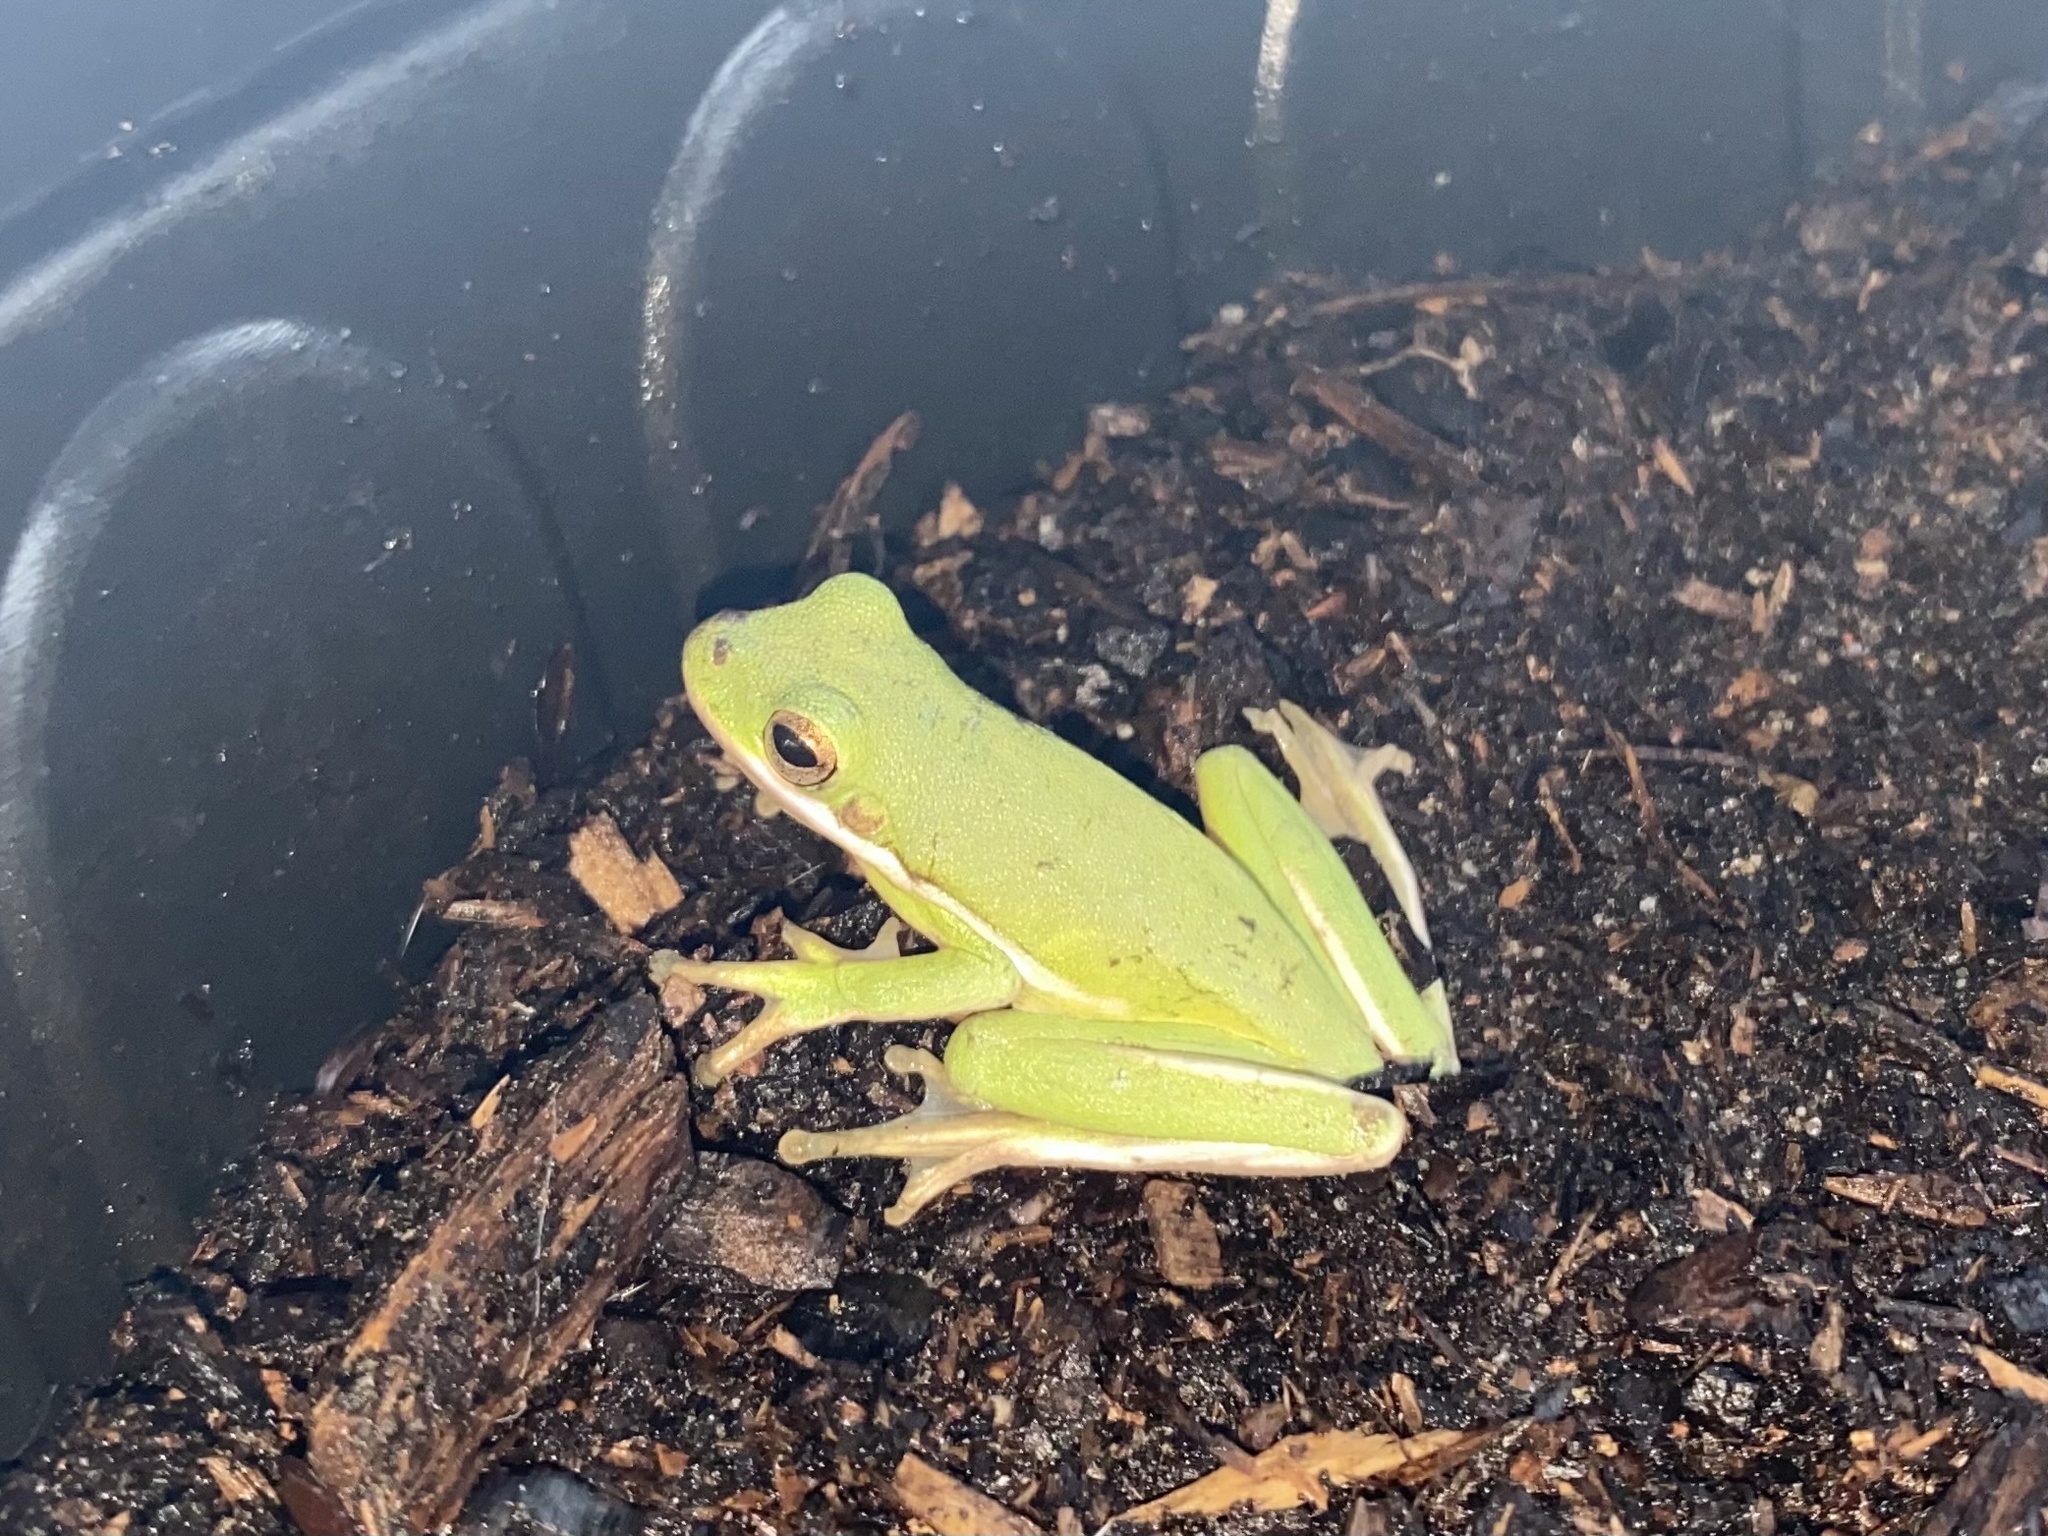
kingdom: Animalia
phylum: Chordata
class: Amphibia
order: Anura
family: Hylidae
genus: Dryophytes
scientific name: Dryophytes cinereus
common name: Green treefrog
